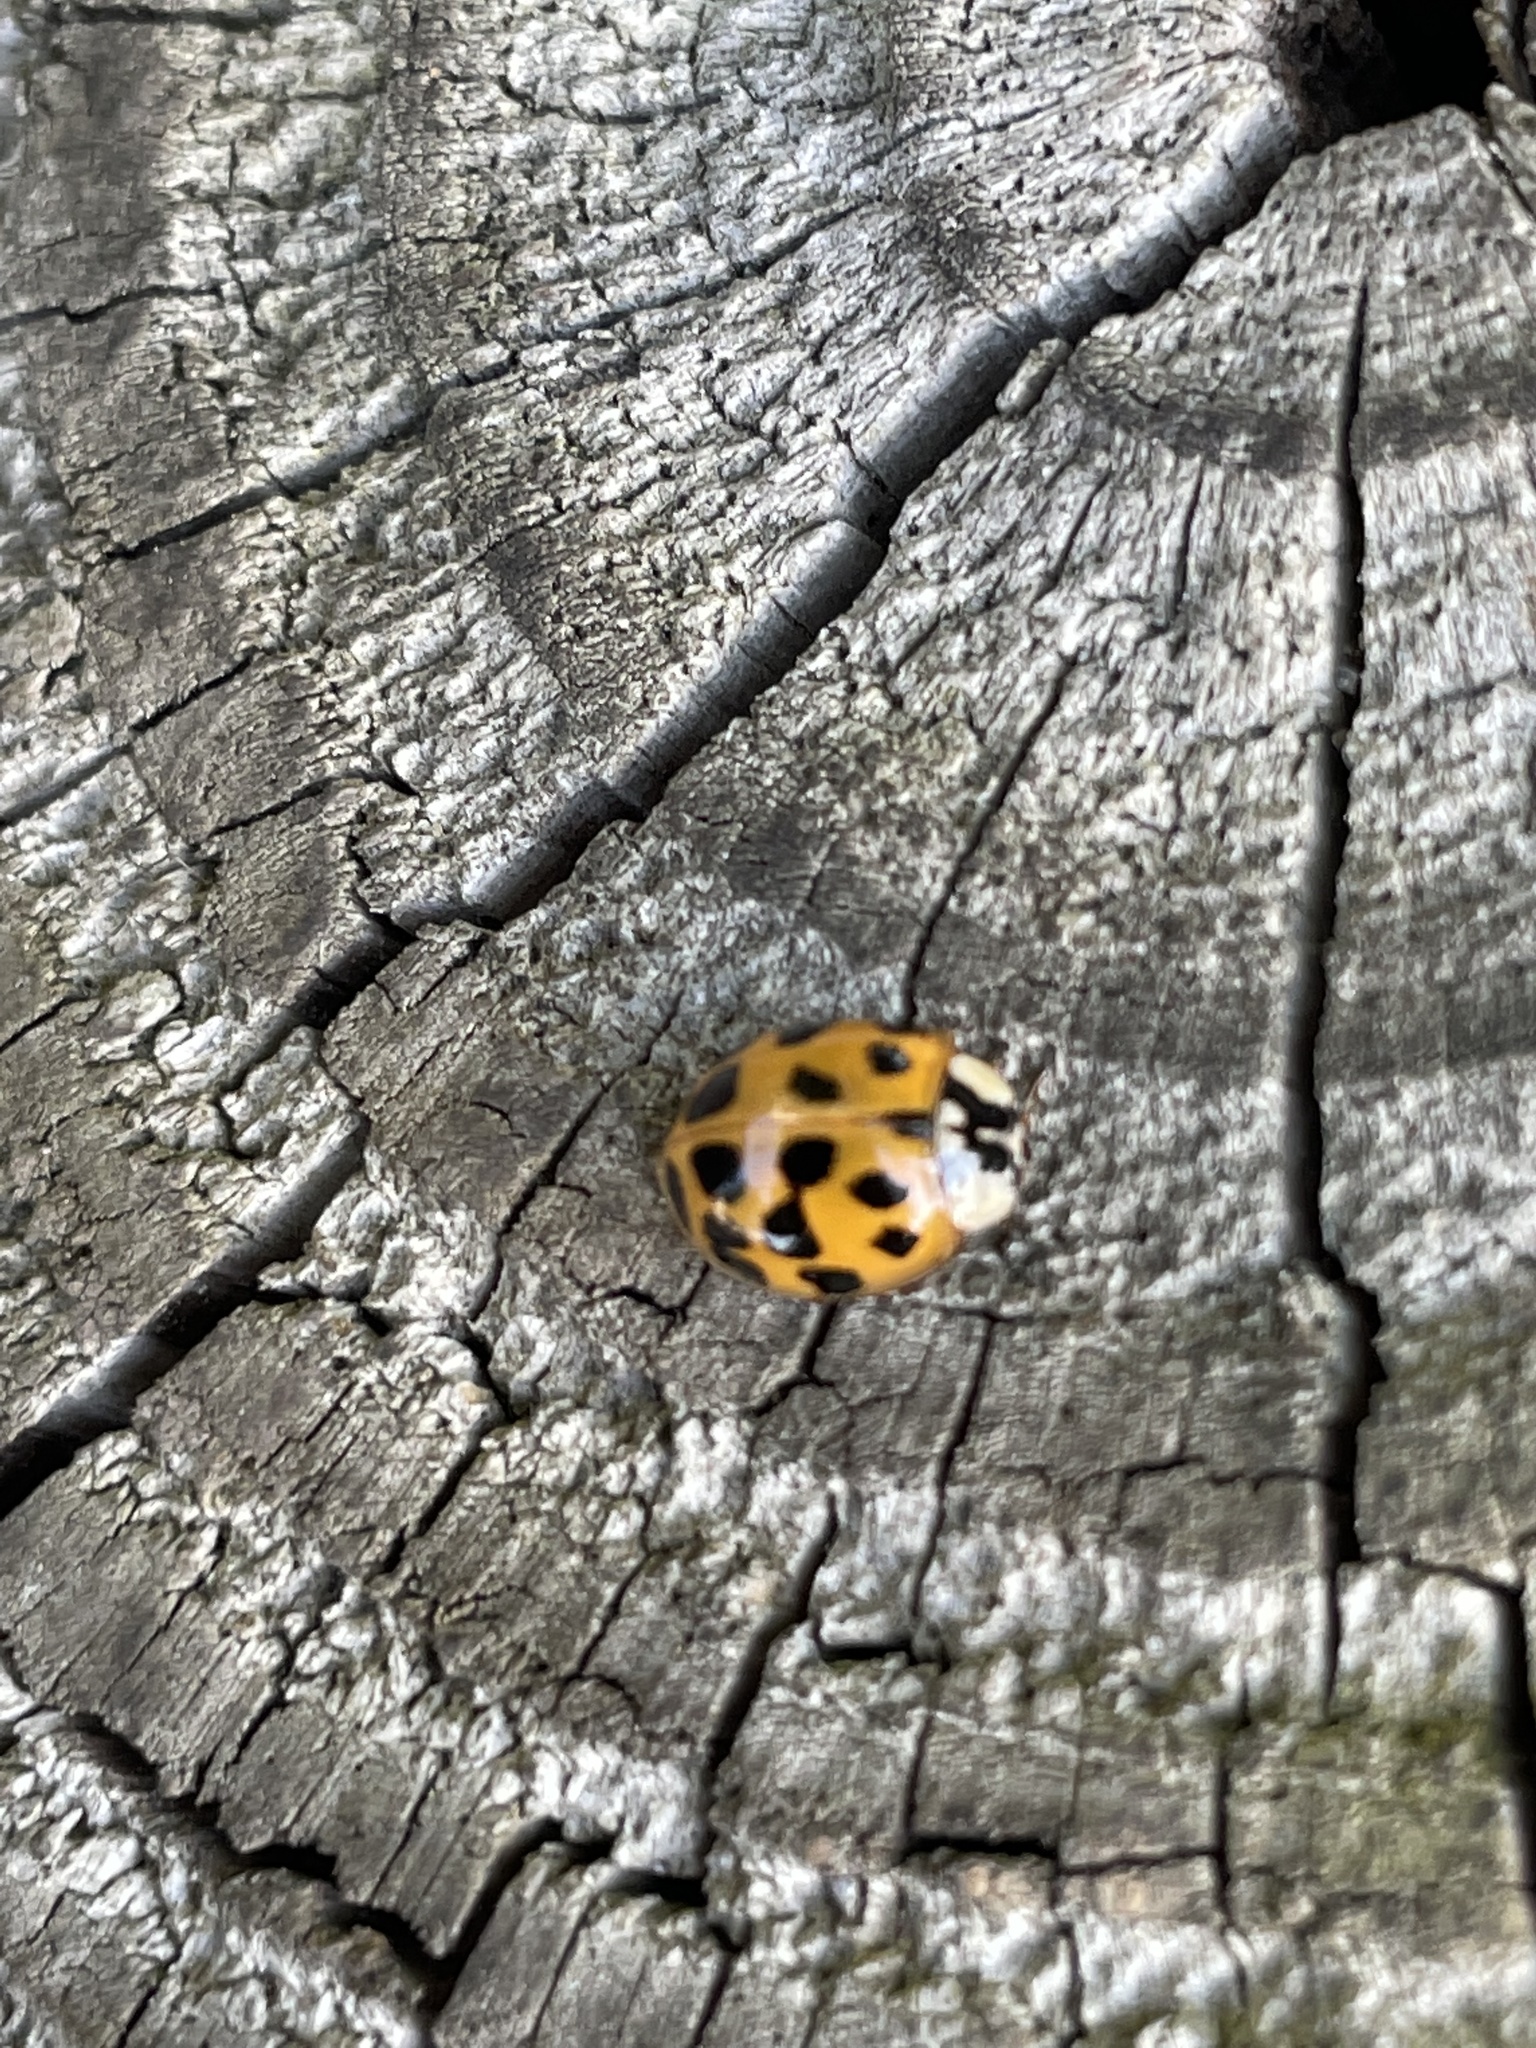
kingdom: Animalia
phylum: Arthropoda
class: Insecta
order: Coleoptera
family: Coccinellidae
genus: Harmonia
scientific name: Harmonia axyridis
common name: Harlequin ladybird
